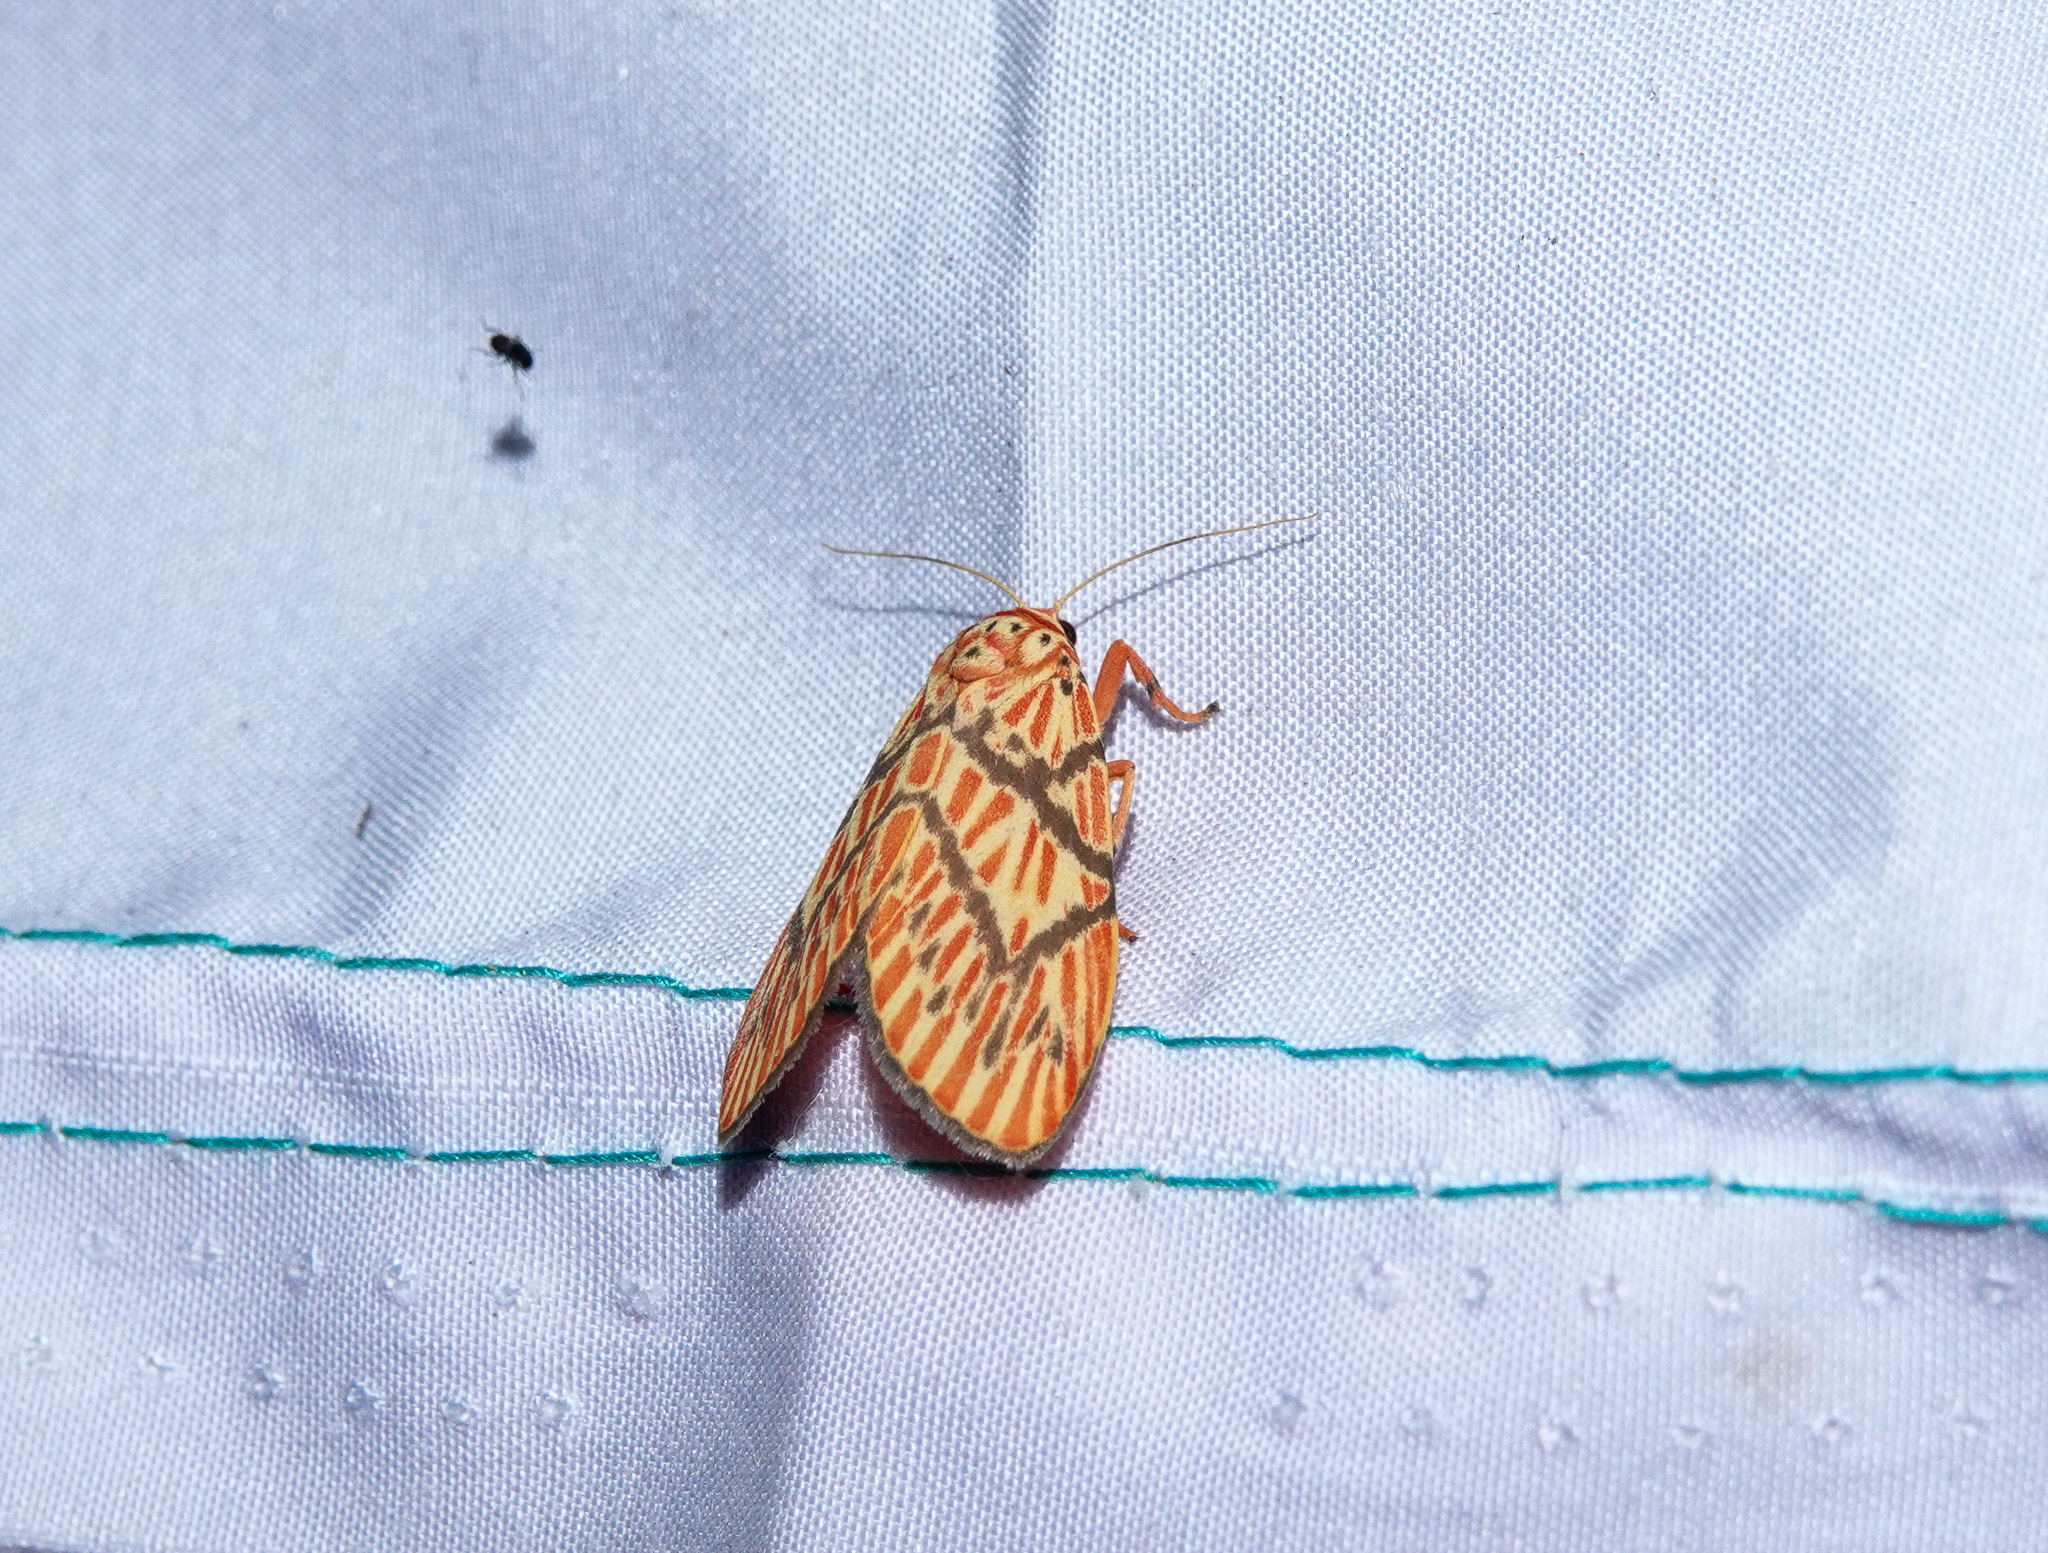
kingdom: Animalia
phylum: Arthropoda
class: Insecta
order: Lepidoptera
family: Erebidae
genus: Barsine
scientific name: Barsine delicia
